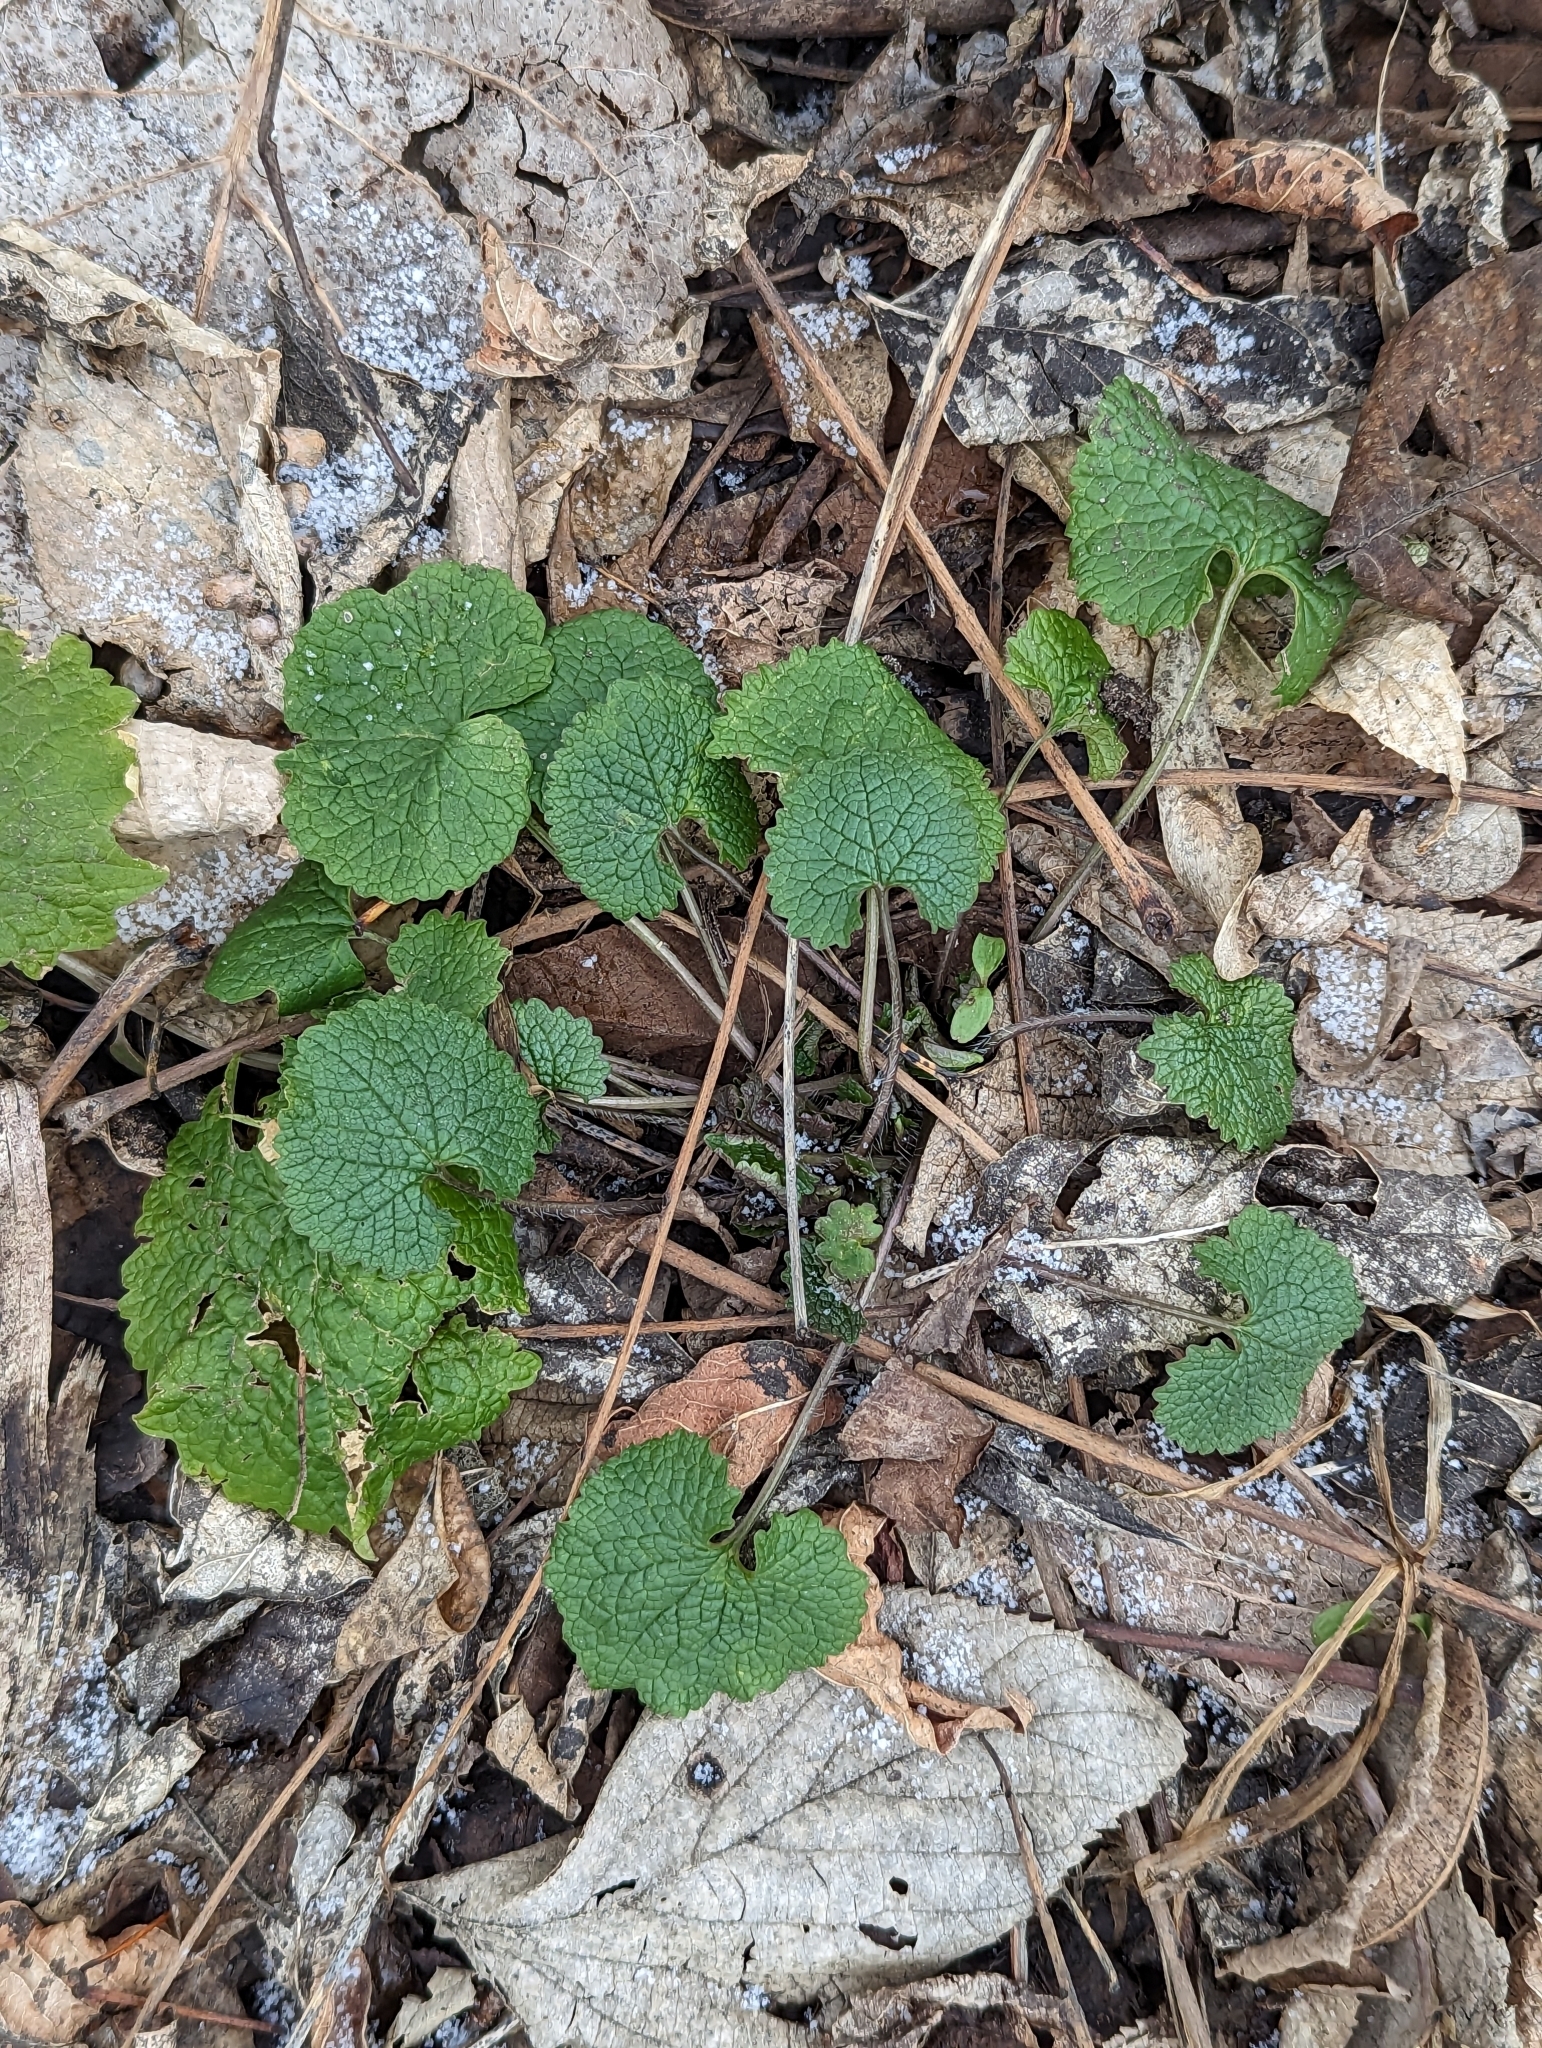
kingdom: Plantae
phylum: Tracheophyta
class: Magnoliopsida
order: Brassicales
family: Brassicaceae
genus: Alliaria
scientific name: Alliaria petiolata
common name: Garlic mustard
